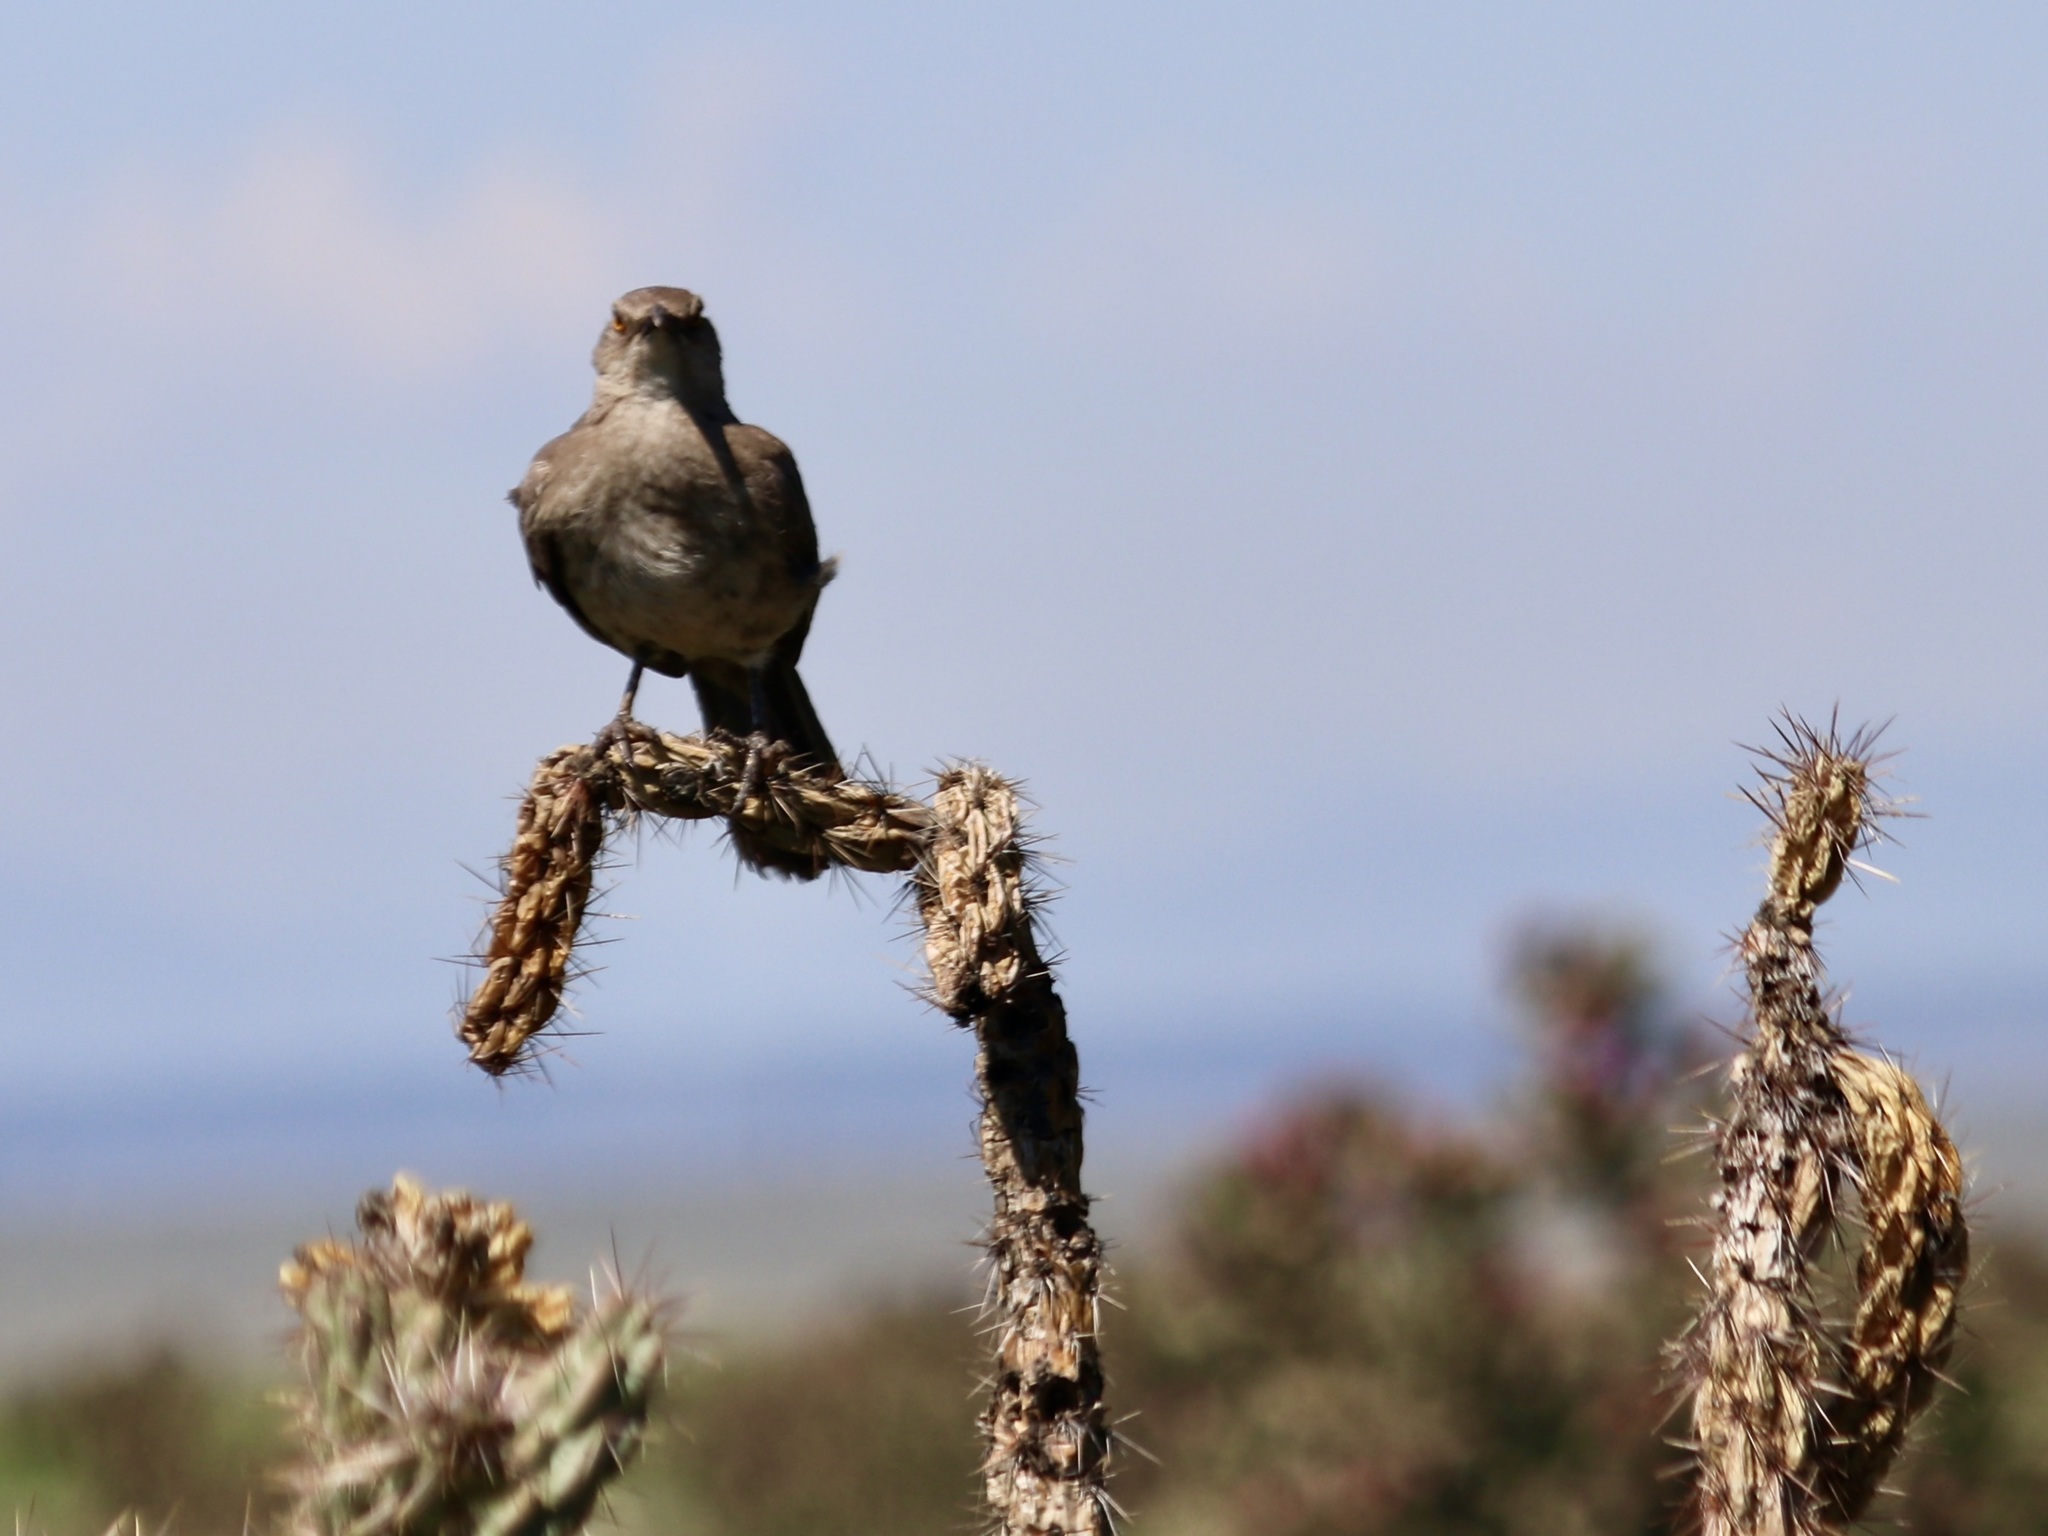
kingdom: Animalia
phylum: Chordata
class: Aves
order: Passeriformes
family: Mimidae
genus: Toxostoma
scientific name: Toxostoma curvirostre
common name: Curve-billed thrasher
